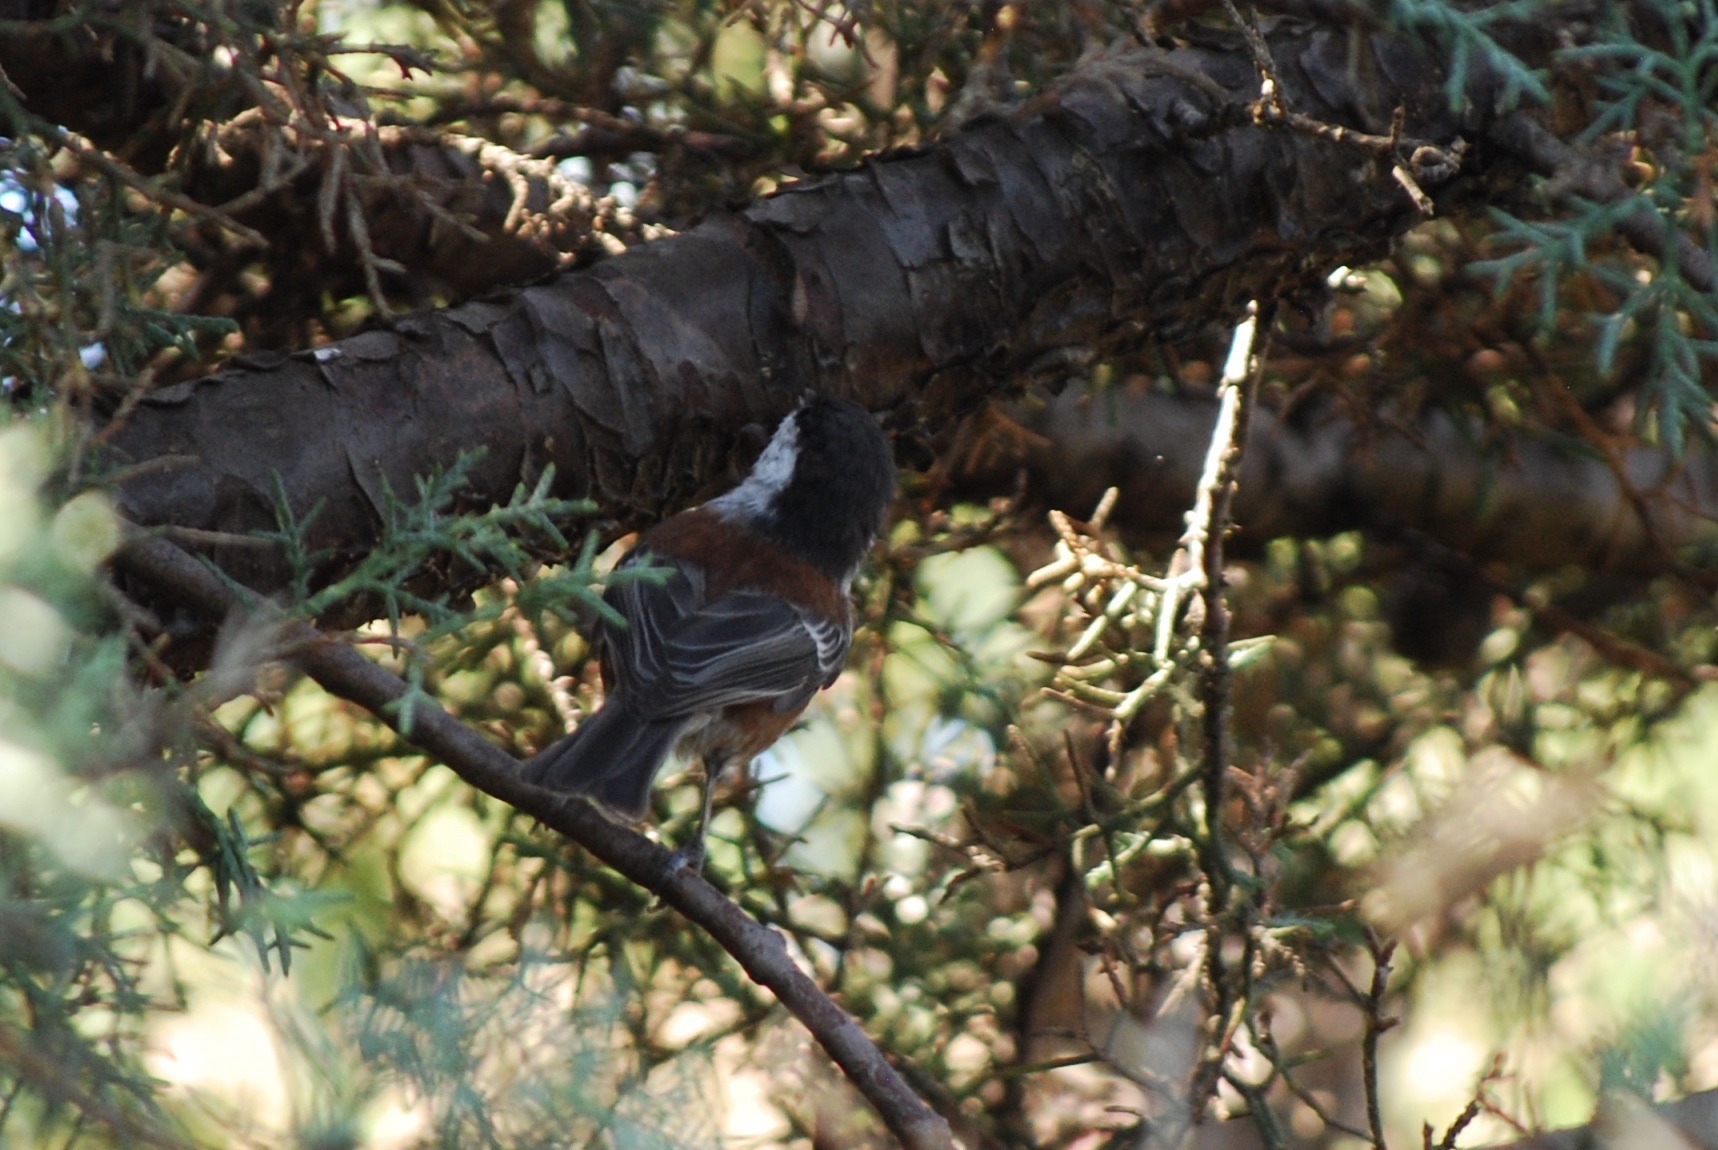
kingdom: Animalia
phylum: Chordata
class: Aves
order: Passeriformes
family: Paridae
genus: Poecile
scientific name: Poecile rufescens
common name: Chestnut-backed chickadee
